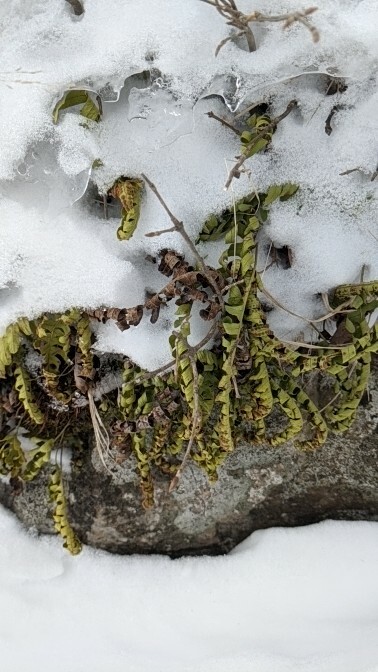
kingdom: Plantae
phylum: Tracheophyta
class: Polypodiopsida
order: Polypodiales
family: Polypodiaceae
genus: Polypodium
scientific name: Polypodium virginianum
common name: American wall fern
